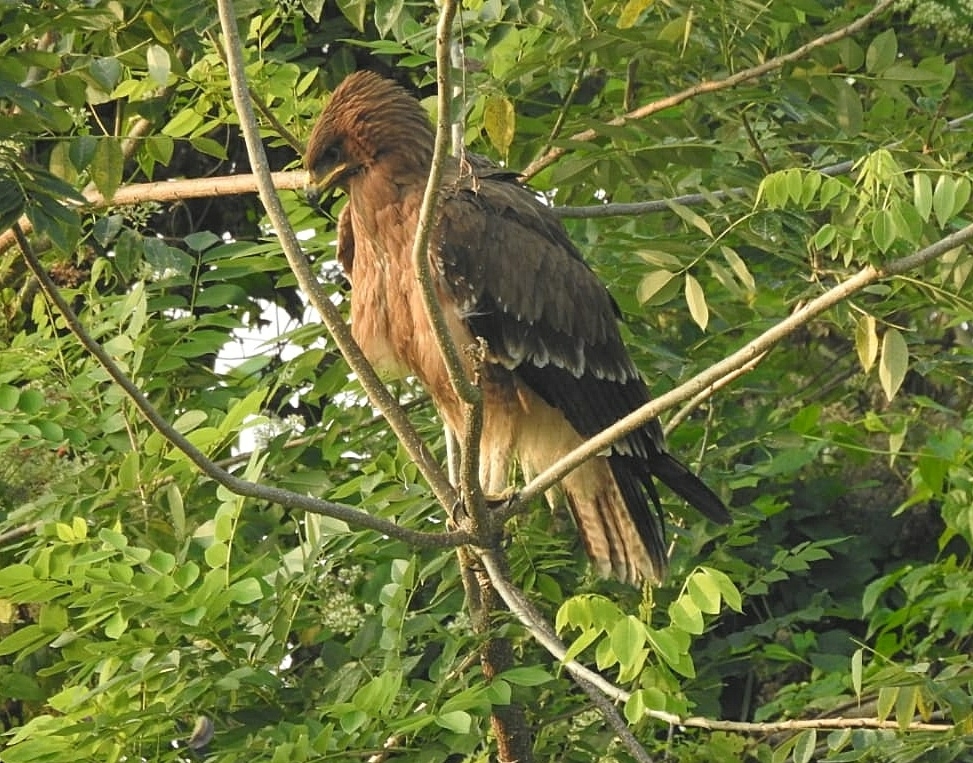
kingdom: Animalia
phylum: Chordata
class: Aves
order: Accipitriformes
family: Accipitridae
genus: Aquila
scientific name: Aquila hastata
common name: Indian spotted eagle
